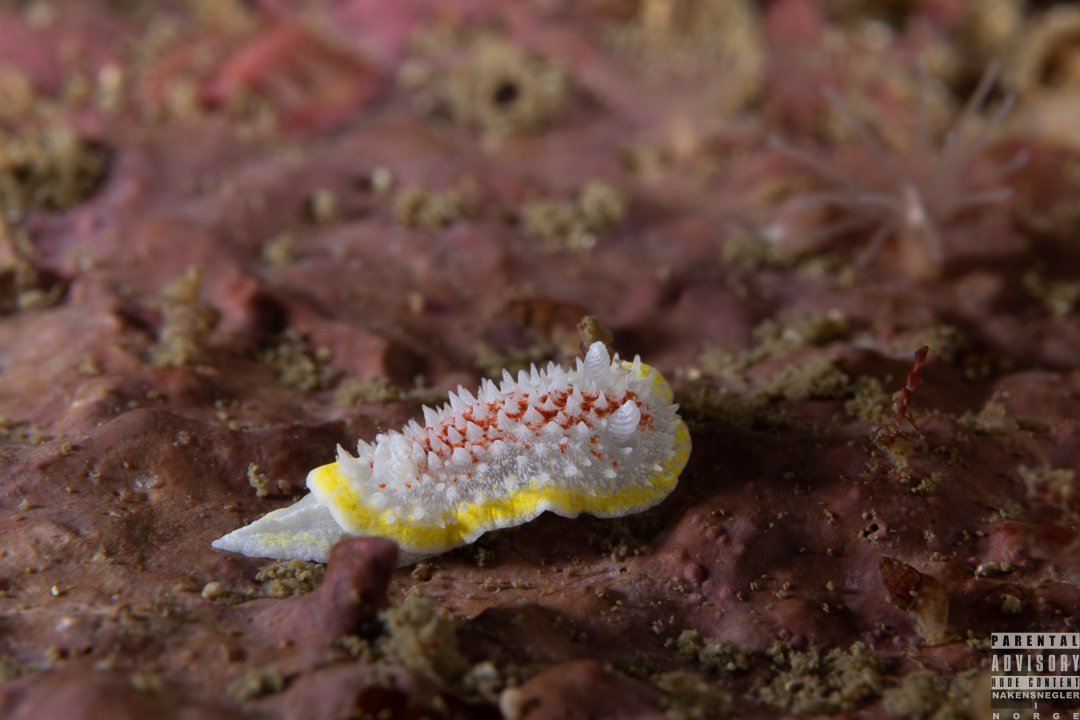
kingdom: Animalia
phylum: Mollusca
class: Gastropoda
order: Nudibranchia
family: Calycidorididae
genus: Diaphorodoris
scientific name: Diaphorodoris luteocincta
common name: Fried egg nudibranch
